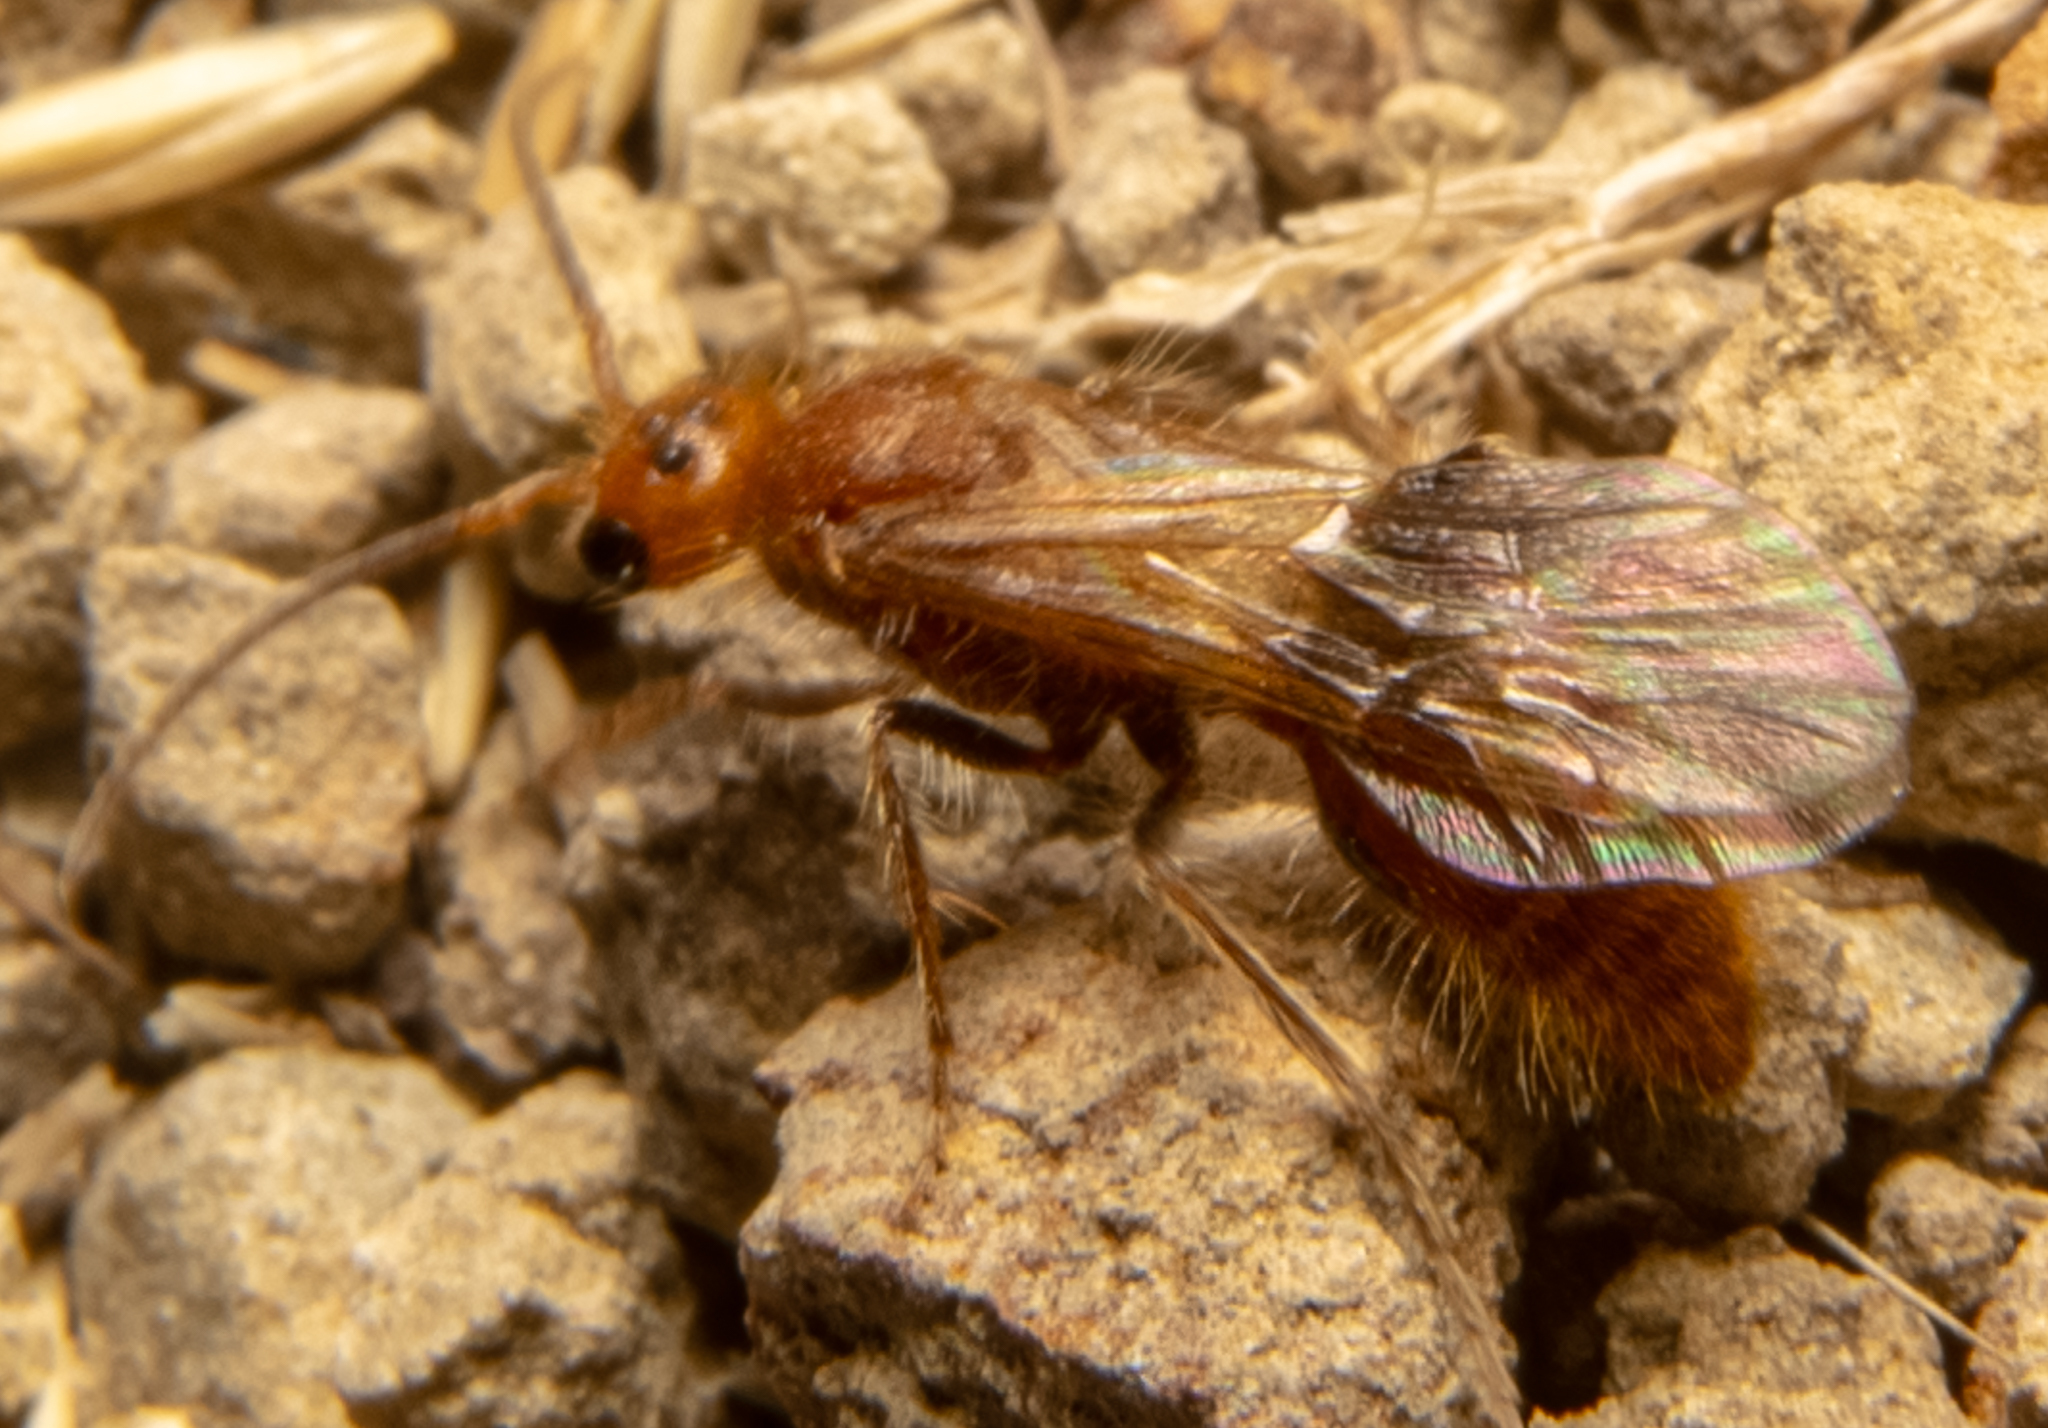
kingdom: Animalia
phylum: Arthropoda
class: Insecta
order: Hymenoptera
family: Mutillidae
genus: Sphaeropthalma
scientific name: Sphaeropthalma unicolor
